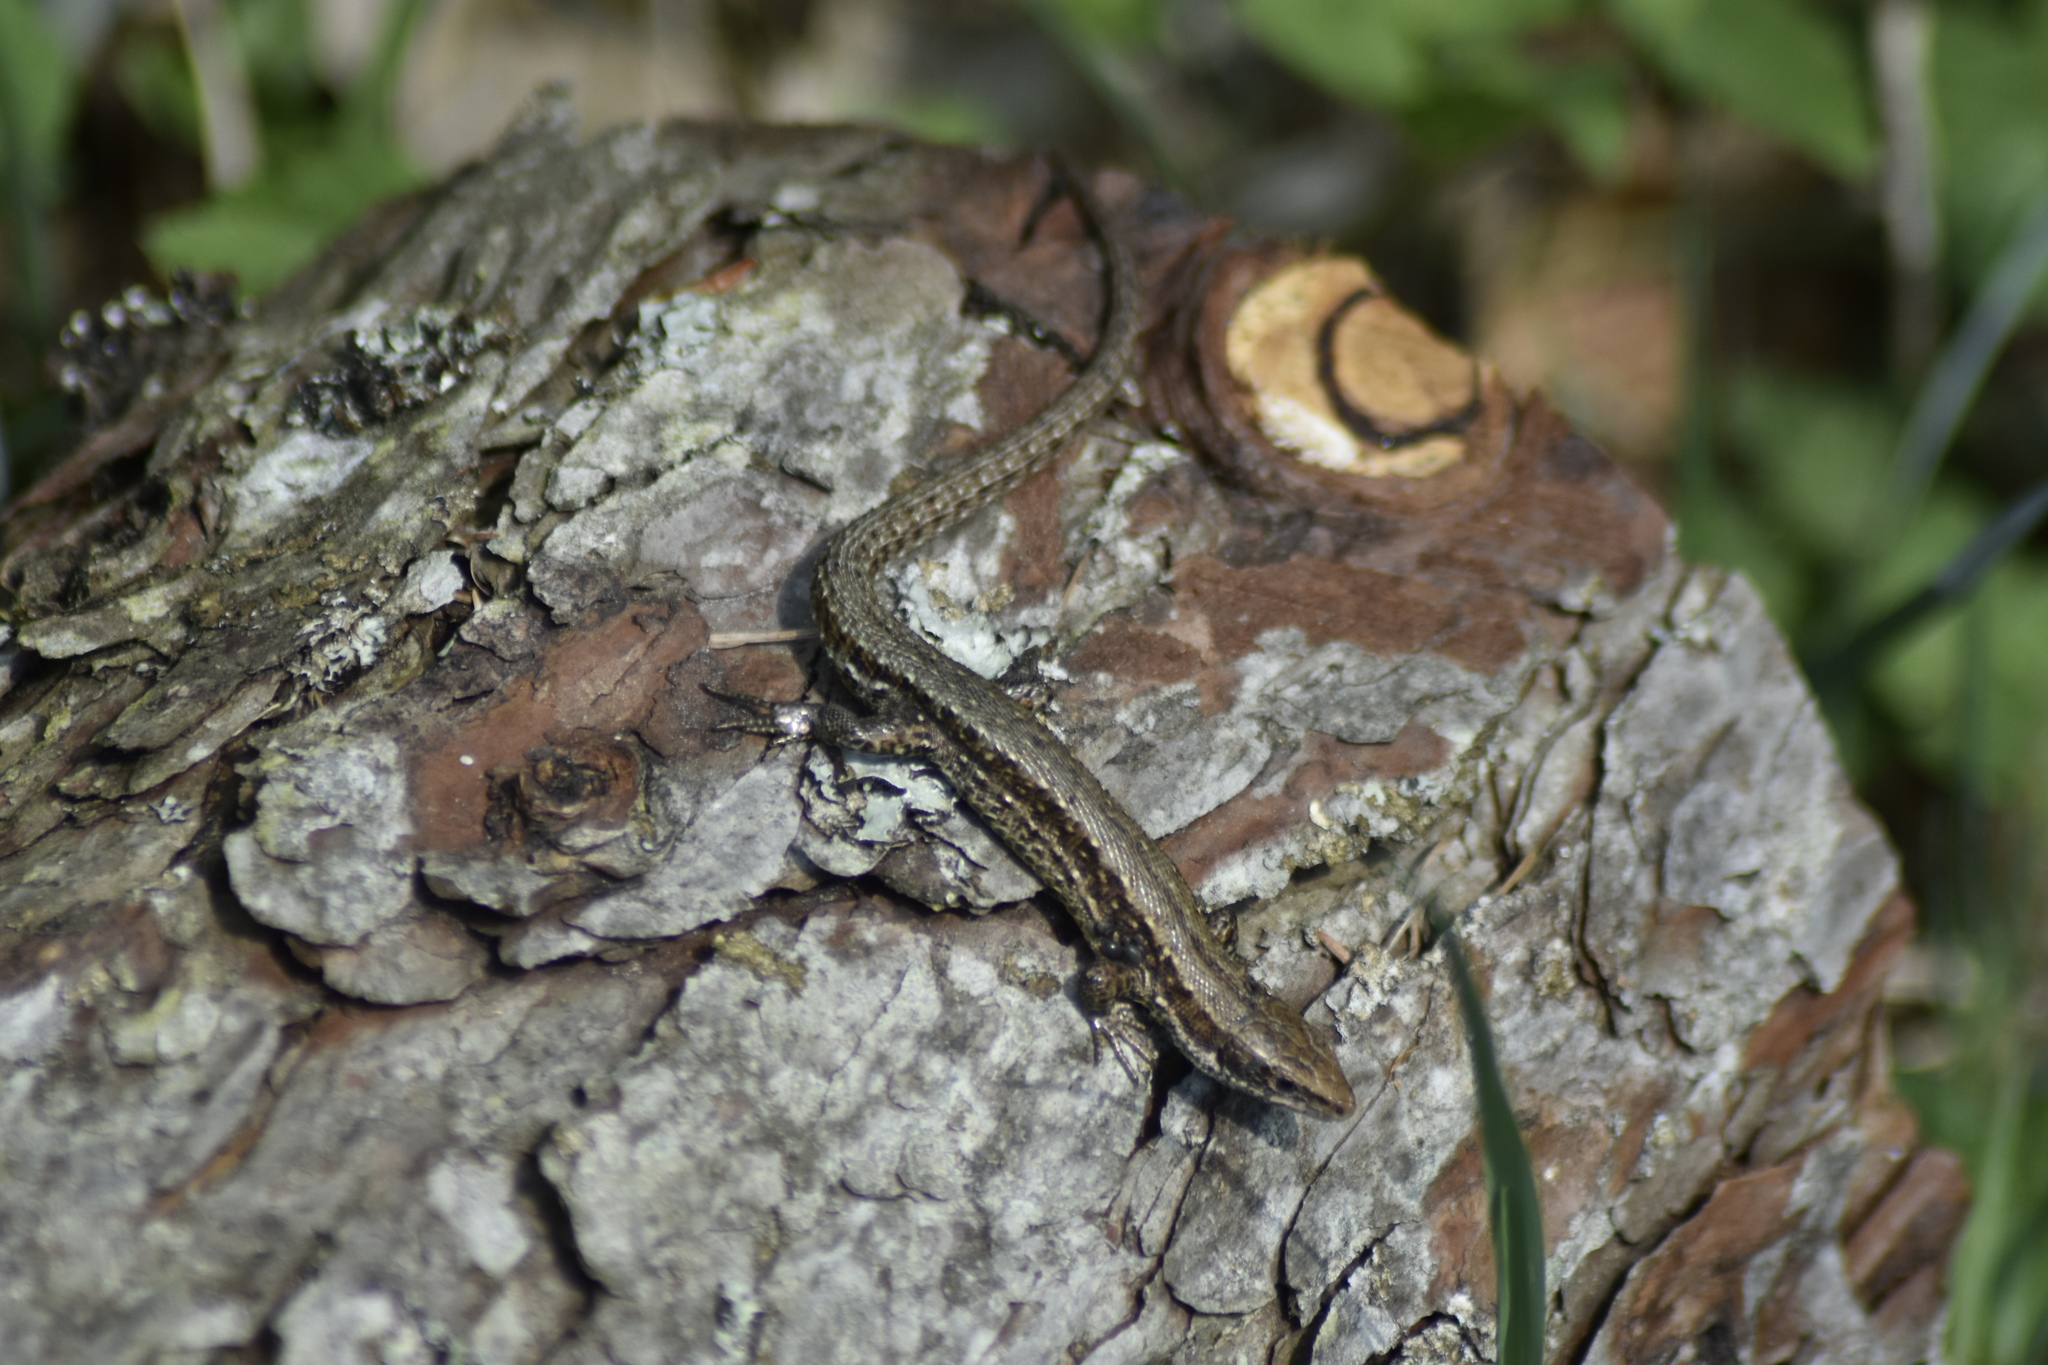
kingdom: Animalia
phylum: Chordata
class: Squamata
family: Lacertidae
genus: Zootoca
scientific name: Zootoca vivipara
